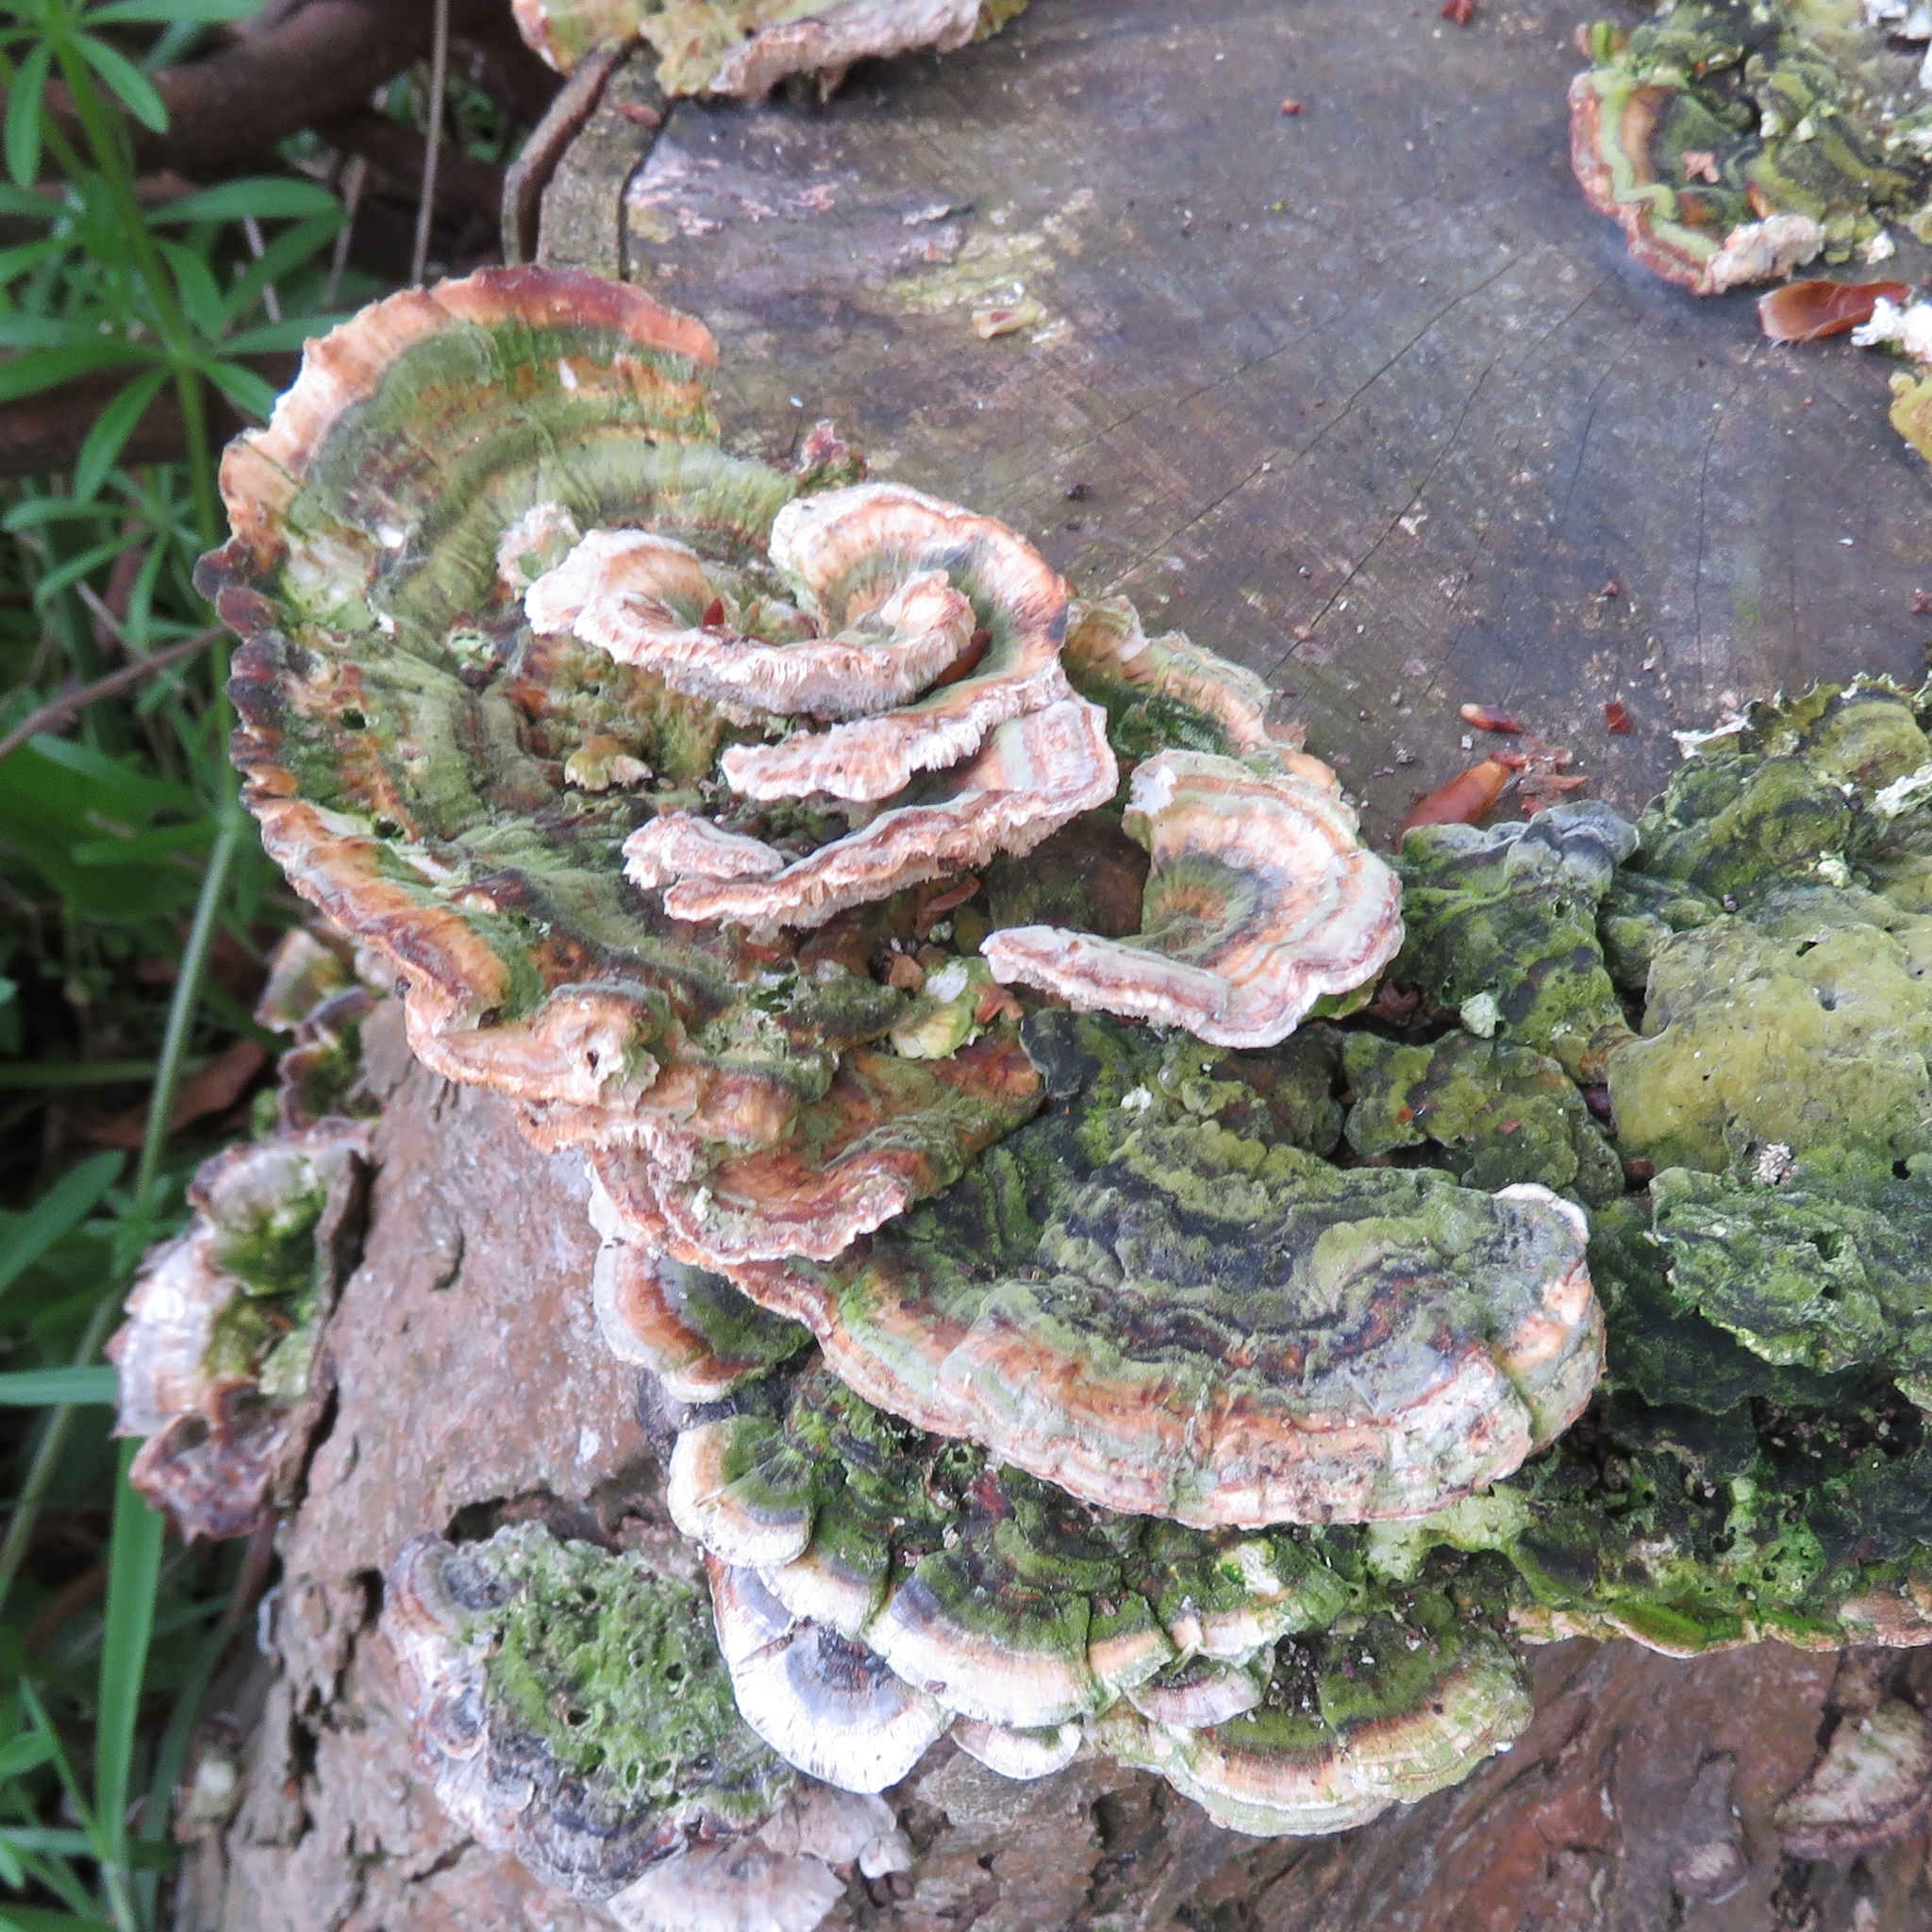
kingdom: Fungi
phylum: Basidiomycota
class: Agaricomycetes
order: Polyporales
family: Polyporaceae
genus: Trametes
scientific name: Trametes versicolor
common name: Turkeytail
